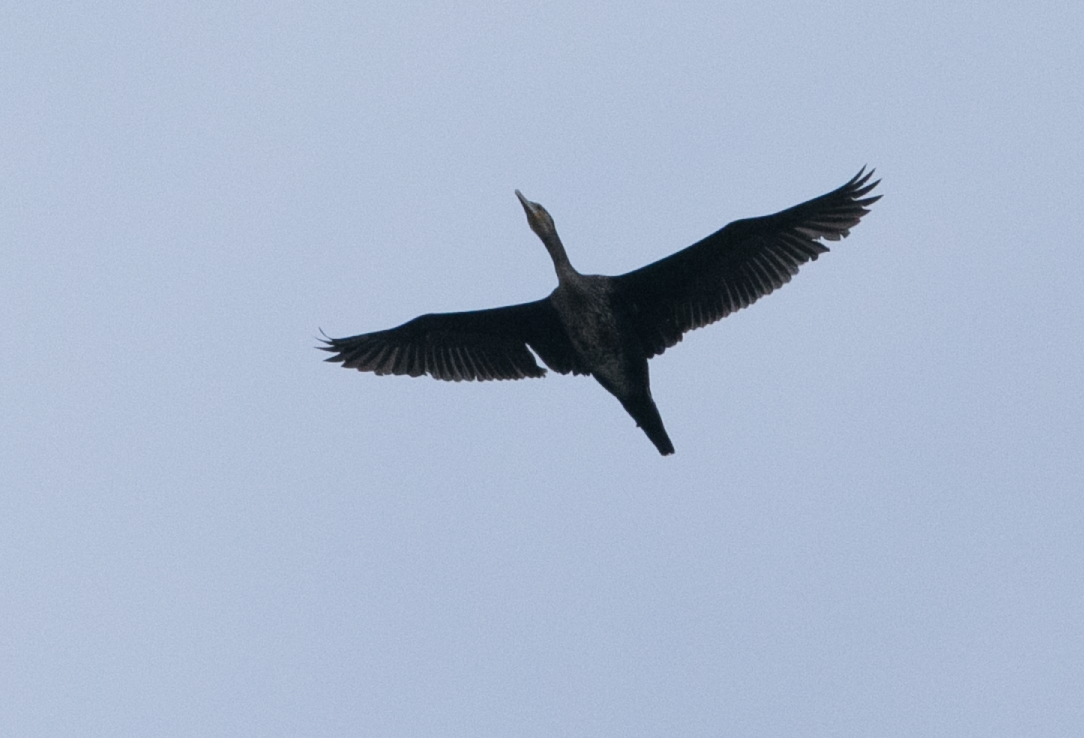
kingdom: Animalia
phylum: Chordata
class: Aves
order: Suliformes
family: Phalacrocoracidae
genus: Phalacrocorax
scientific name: Phalacrocorax carbo
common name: Great cormorant
